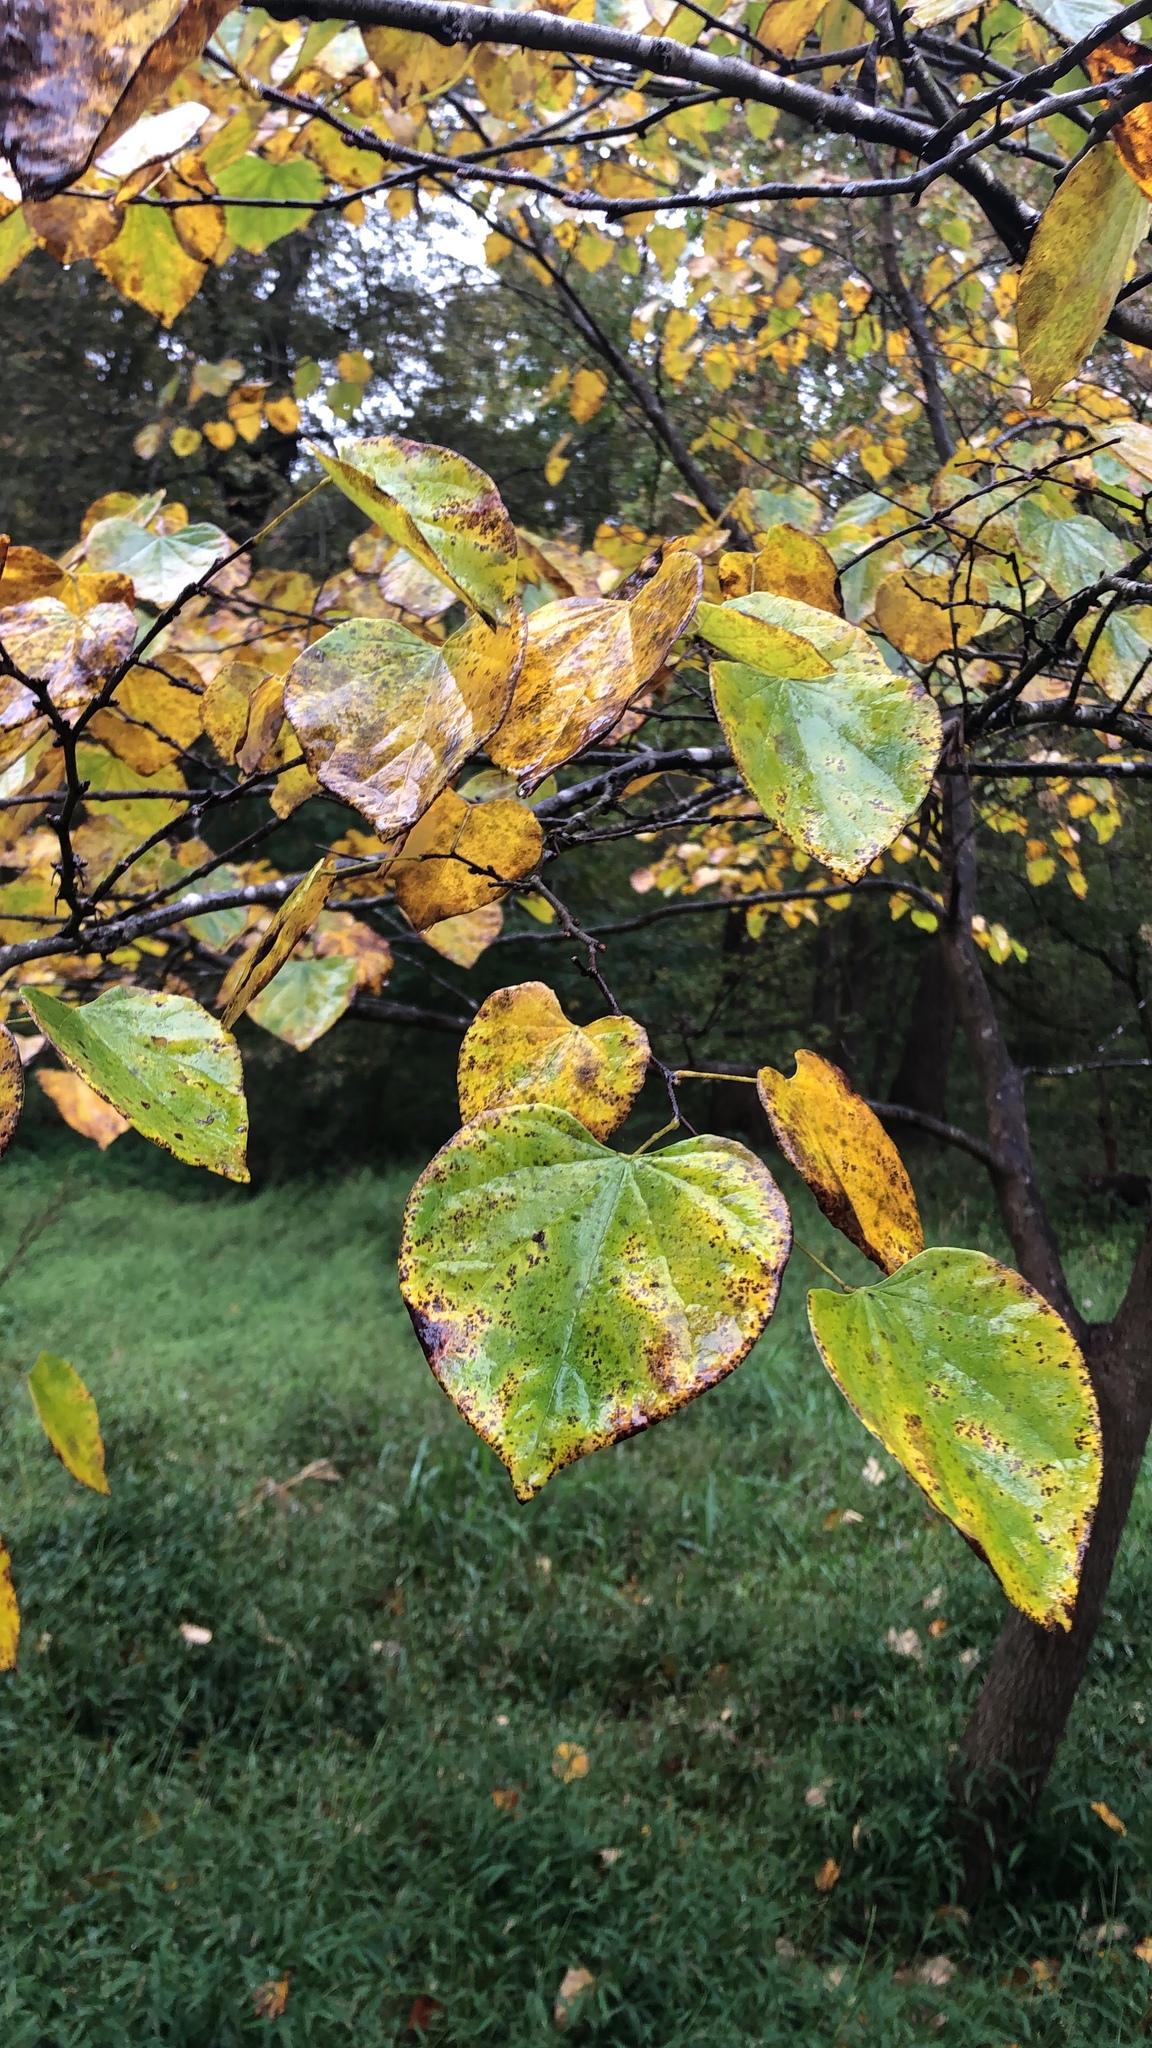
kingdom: Plantae
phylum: Tracheophyta
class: Magnoliopsida
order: Fabales
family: Fabaceae
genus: Cercis
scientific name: Cercis canadensis
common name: Eastern redbud
